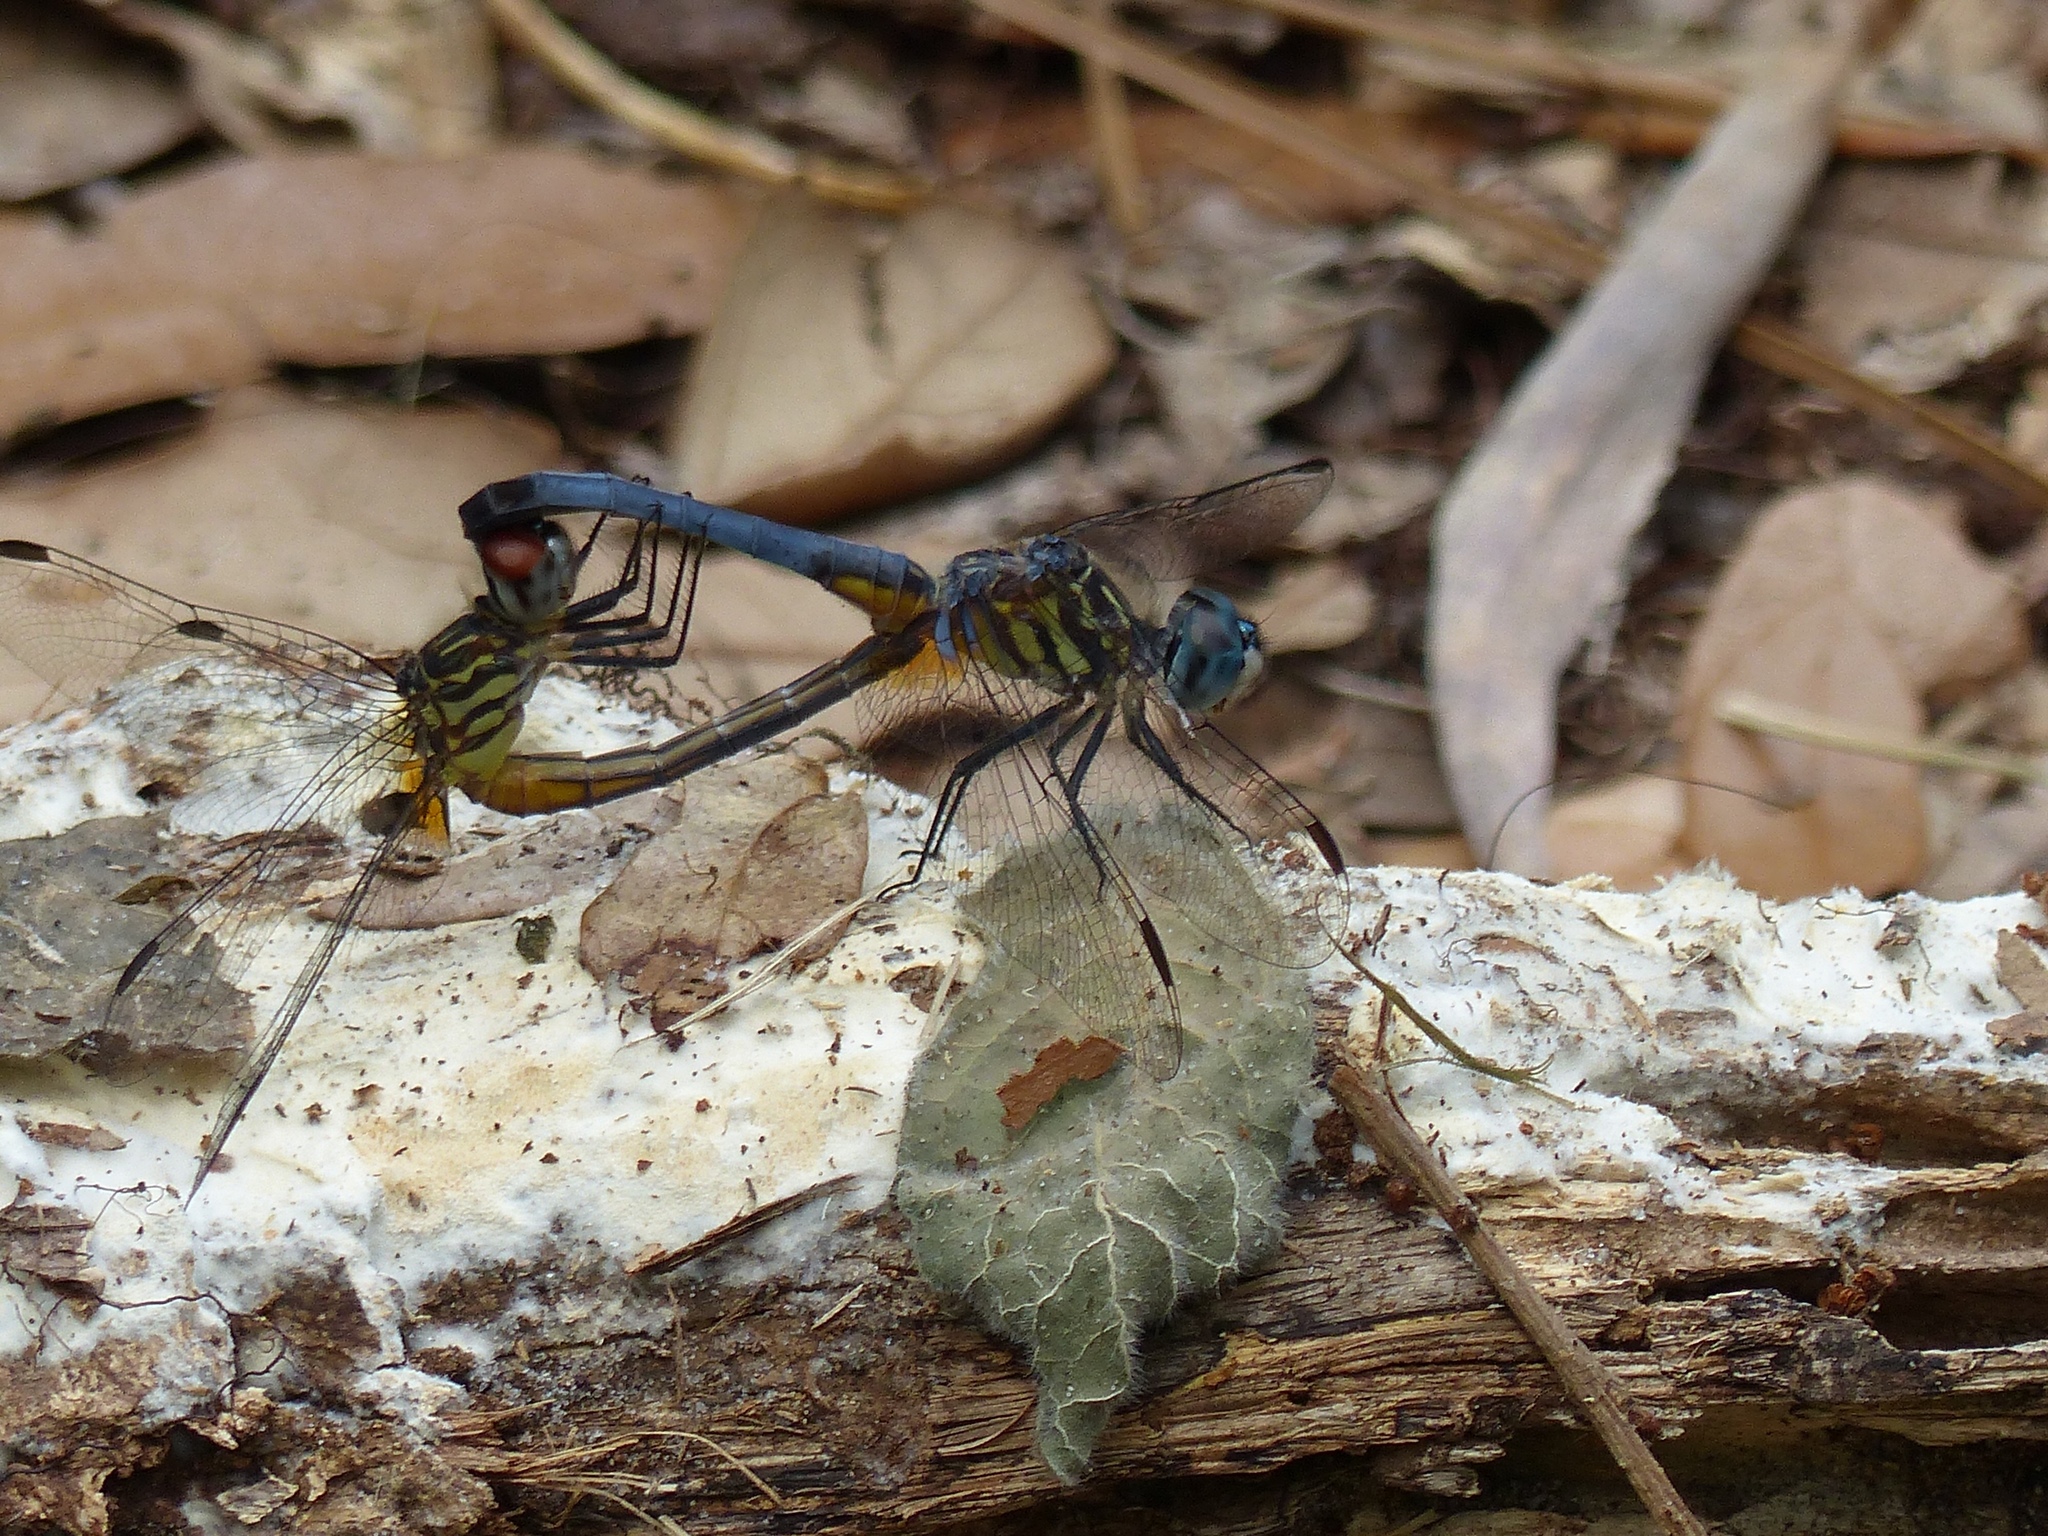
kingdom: Animalia
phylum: Arthropoda
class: Insecta
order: Odonata
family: Libellulidae
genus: Pachydiplax
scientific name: Pachydiplax longipennis
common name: Blue dasher
